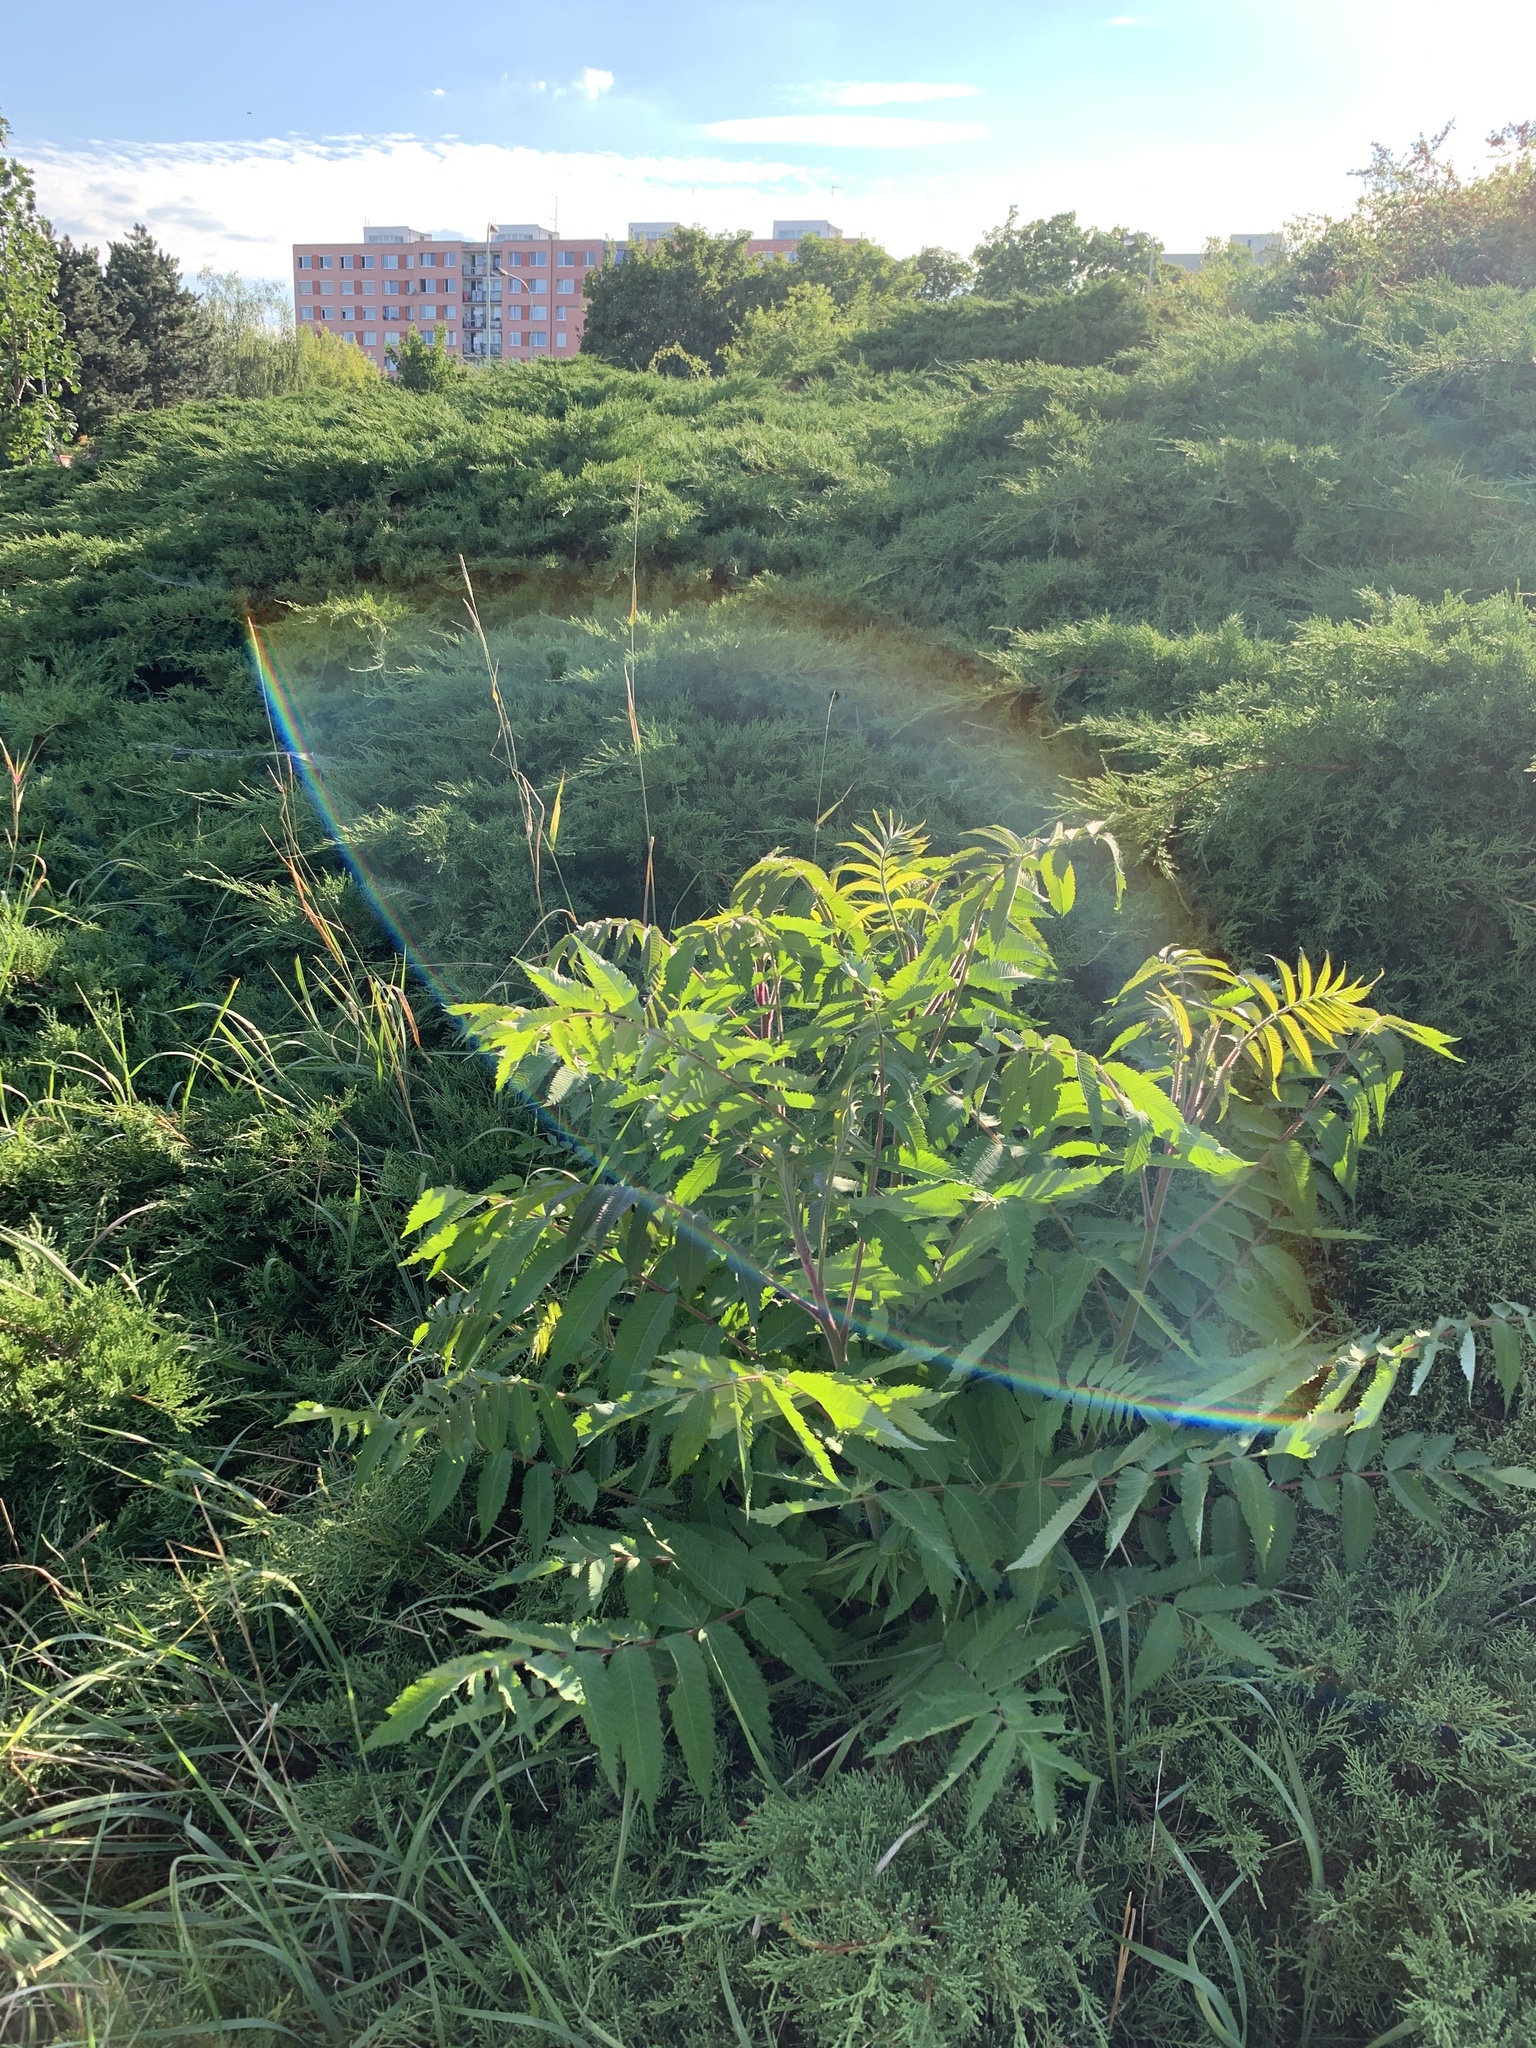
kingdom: Plantae
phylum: Tracheophyta
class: Magnoliopsida
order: Sapindales
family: Anacardiaceae
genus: Rhus
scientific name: Rhus typhina
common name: Staghorn sumac
